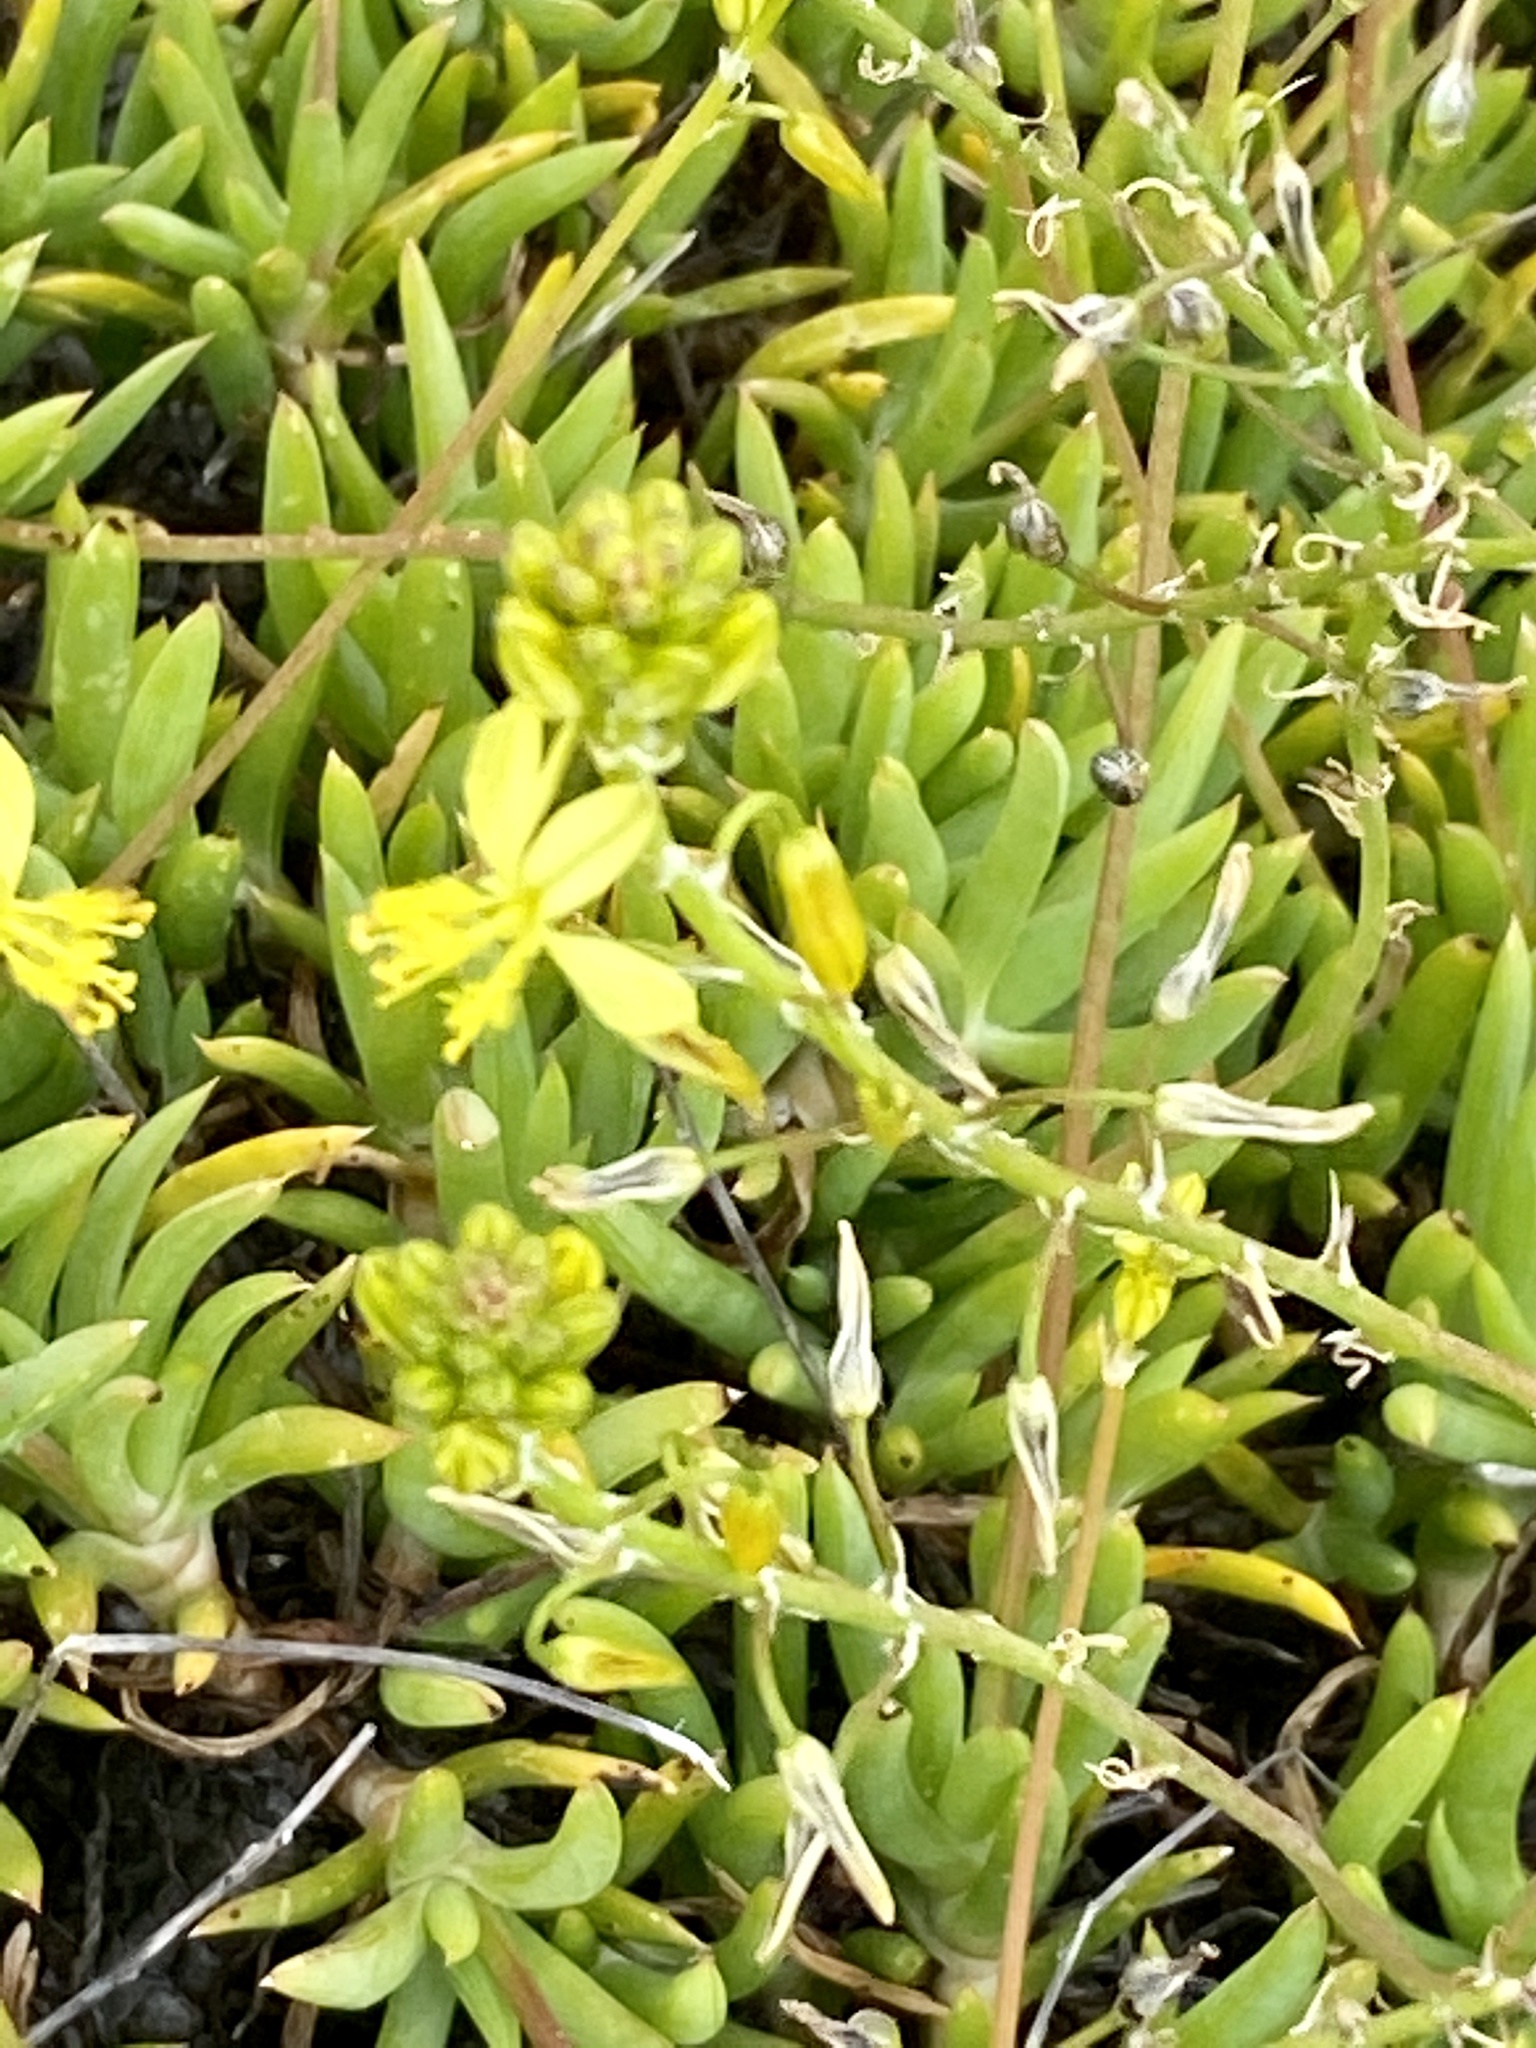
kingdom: Plantae
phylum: Tracheophyta
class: Liliopsida
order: Asparagales
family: Asphodelaceae
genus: Bulbine
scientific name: Bulbine frutescens
